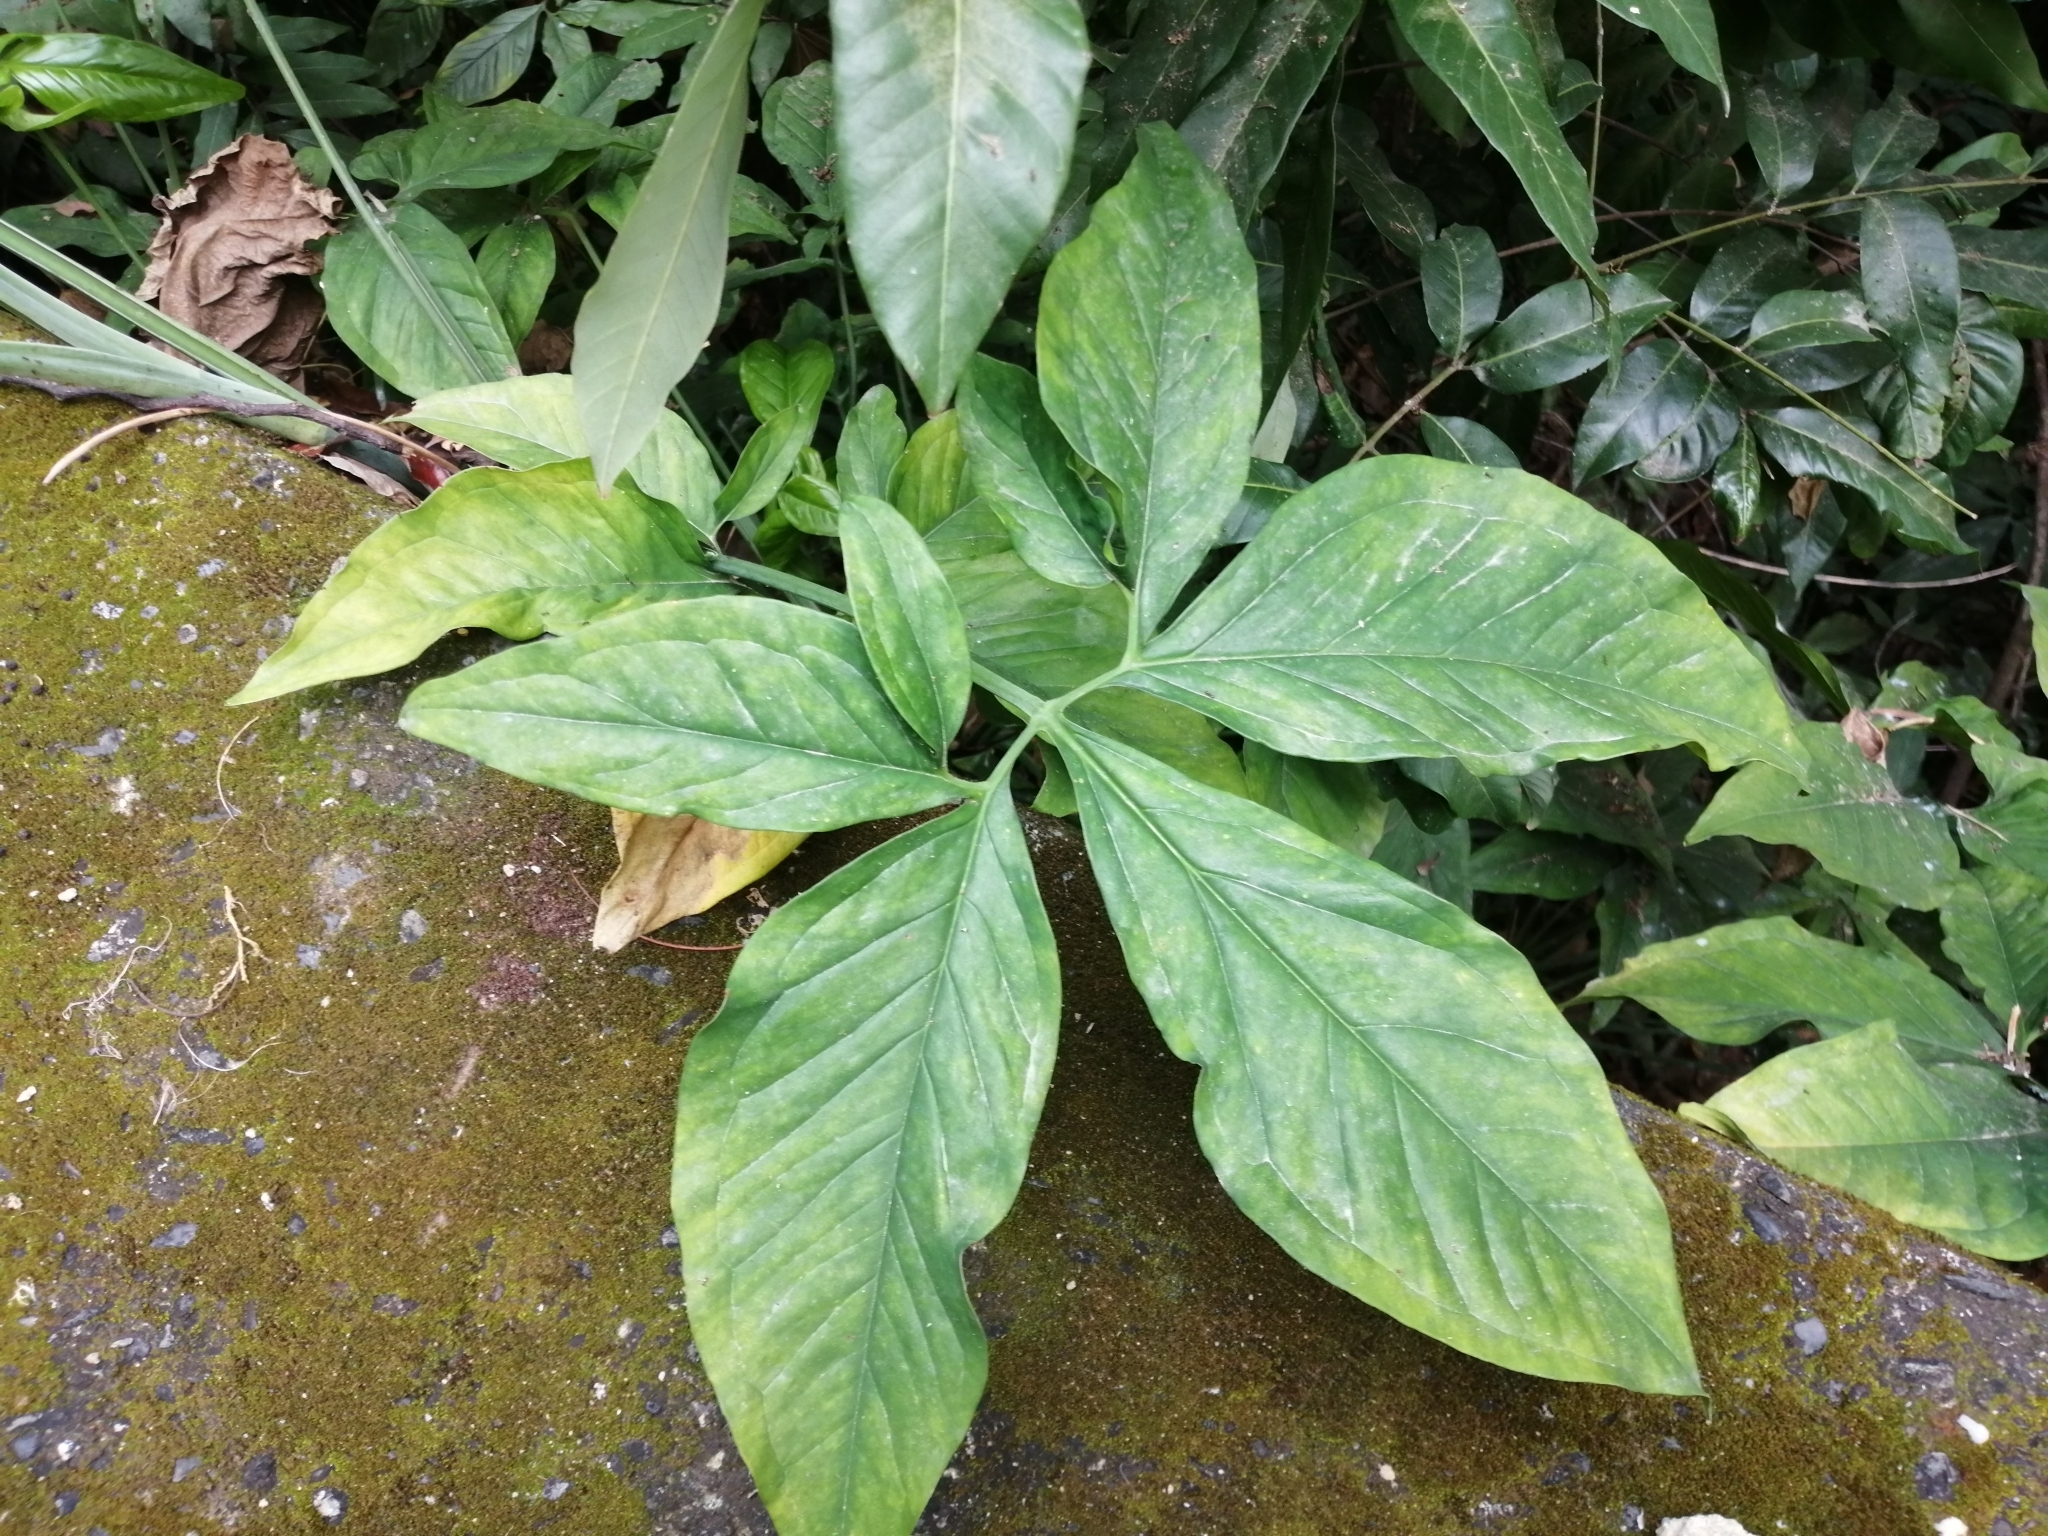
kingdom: Plantae
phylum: Tracheophyta
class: Liliopsida
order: Alismatales
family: Araceae
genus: Syngonium
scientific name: Syngonium angustatum
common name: Fivefingers
